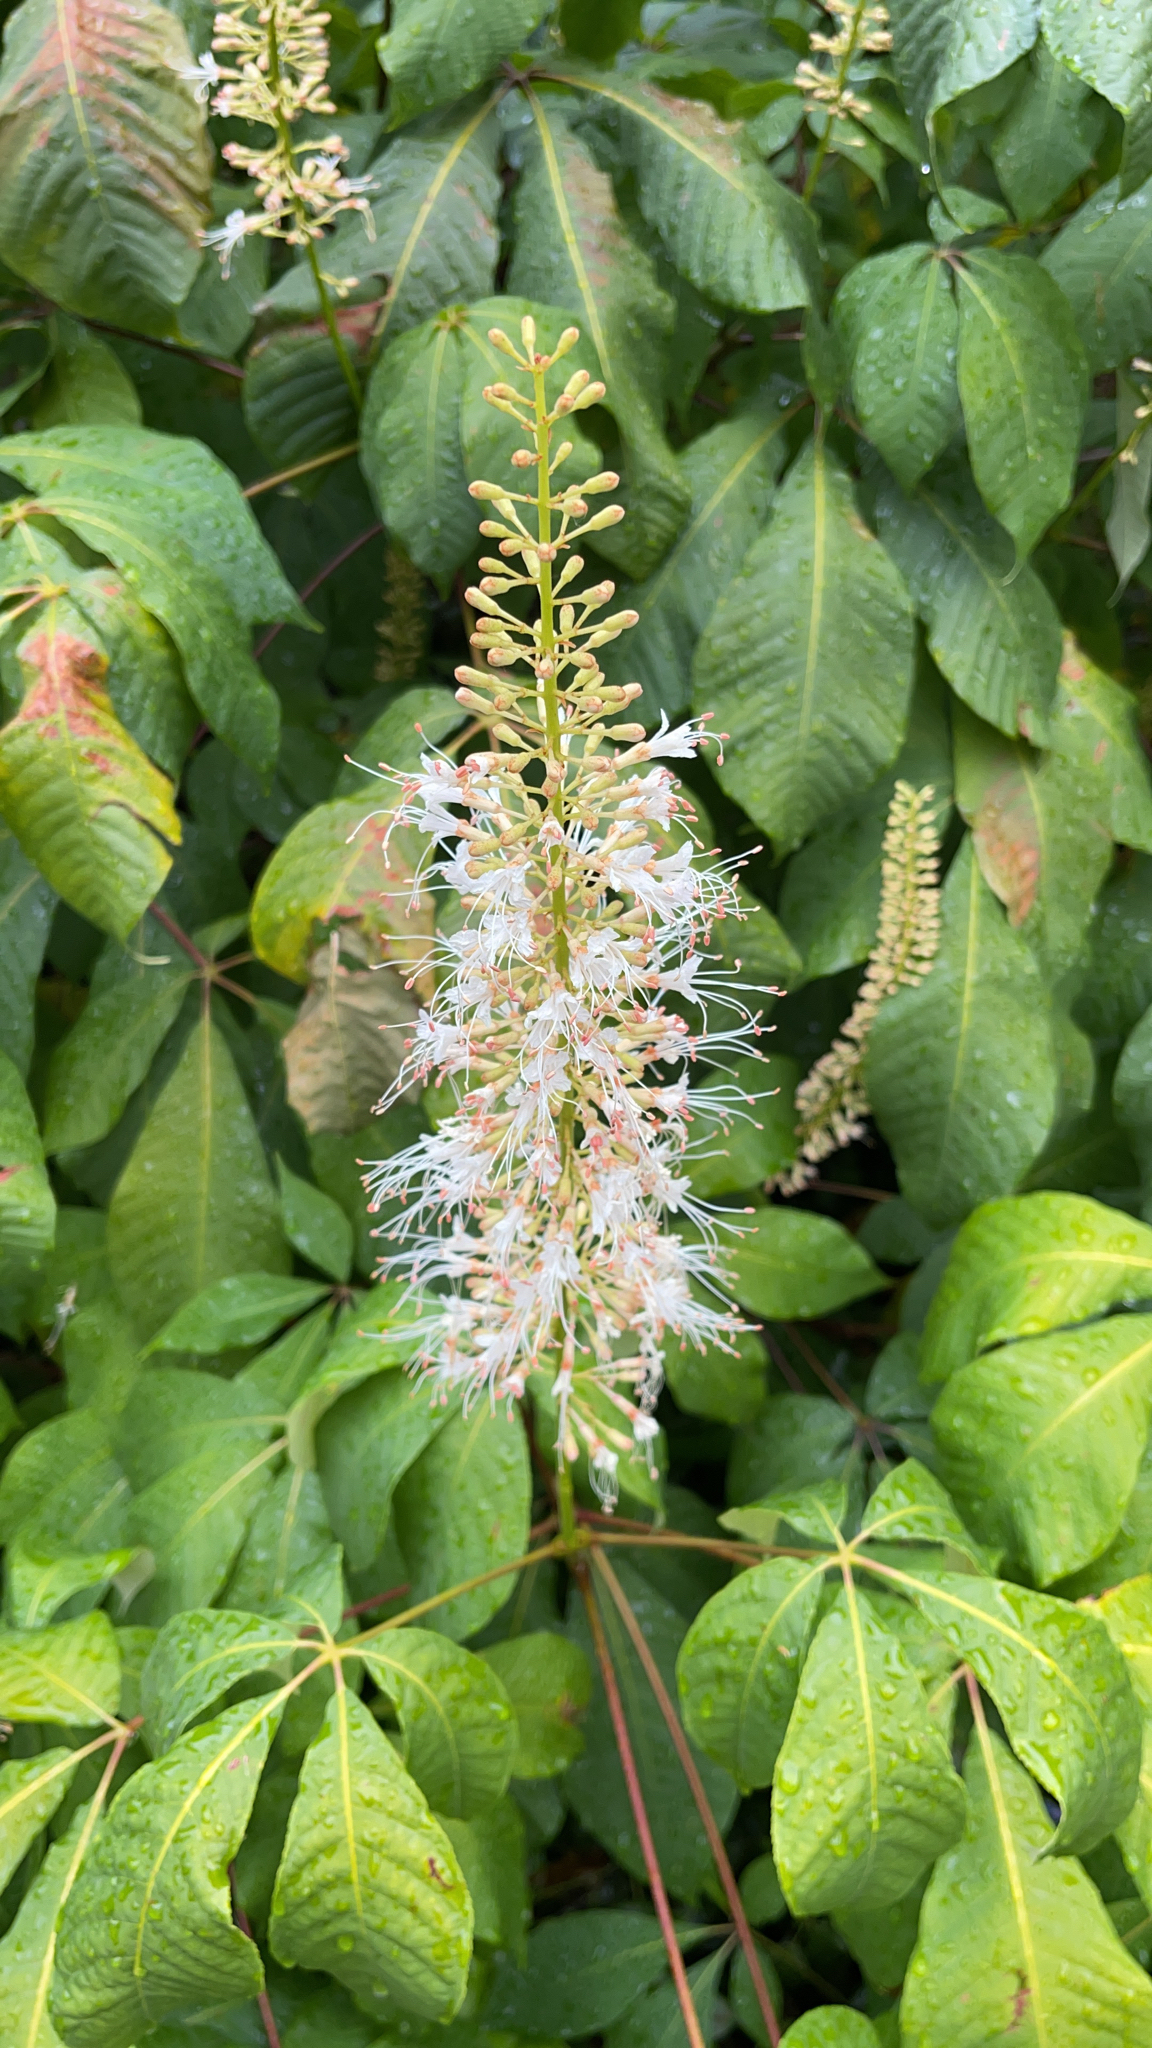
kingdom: Plantae
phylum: Tracheophyta
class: Magnoliopsida
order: Sapindales
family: Sapindaceae
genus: Aesculus
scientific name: Aesculus parviflora
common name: Bottlebrush buckeye
